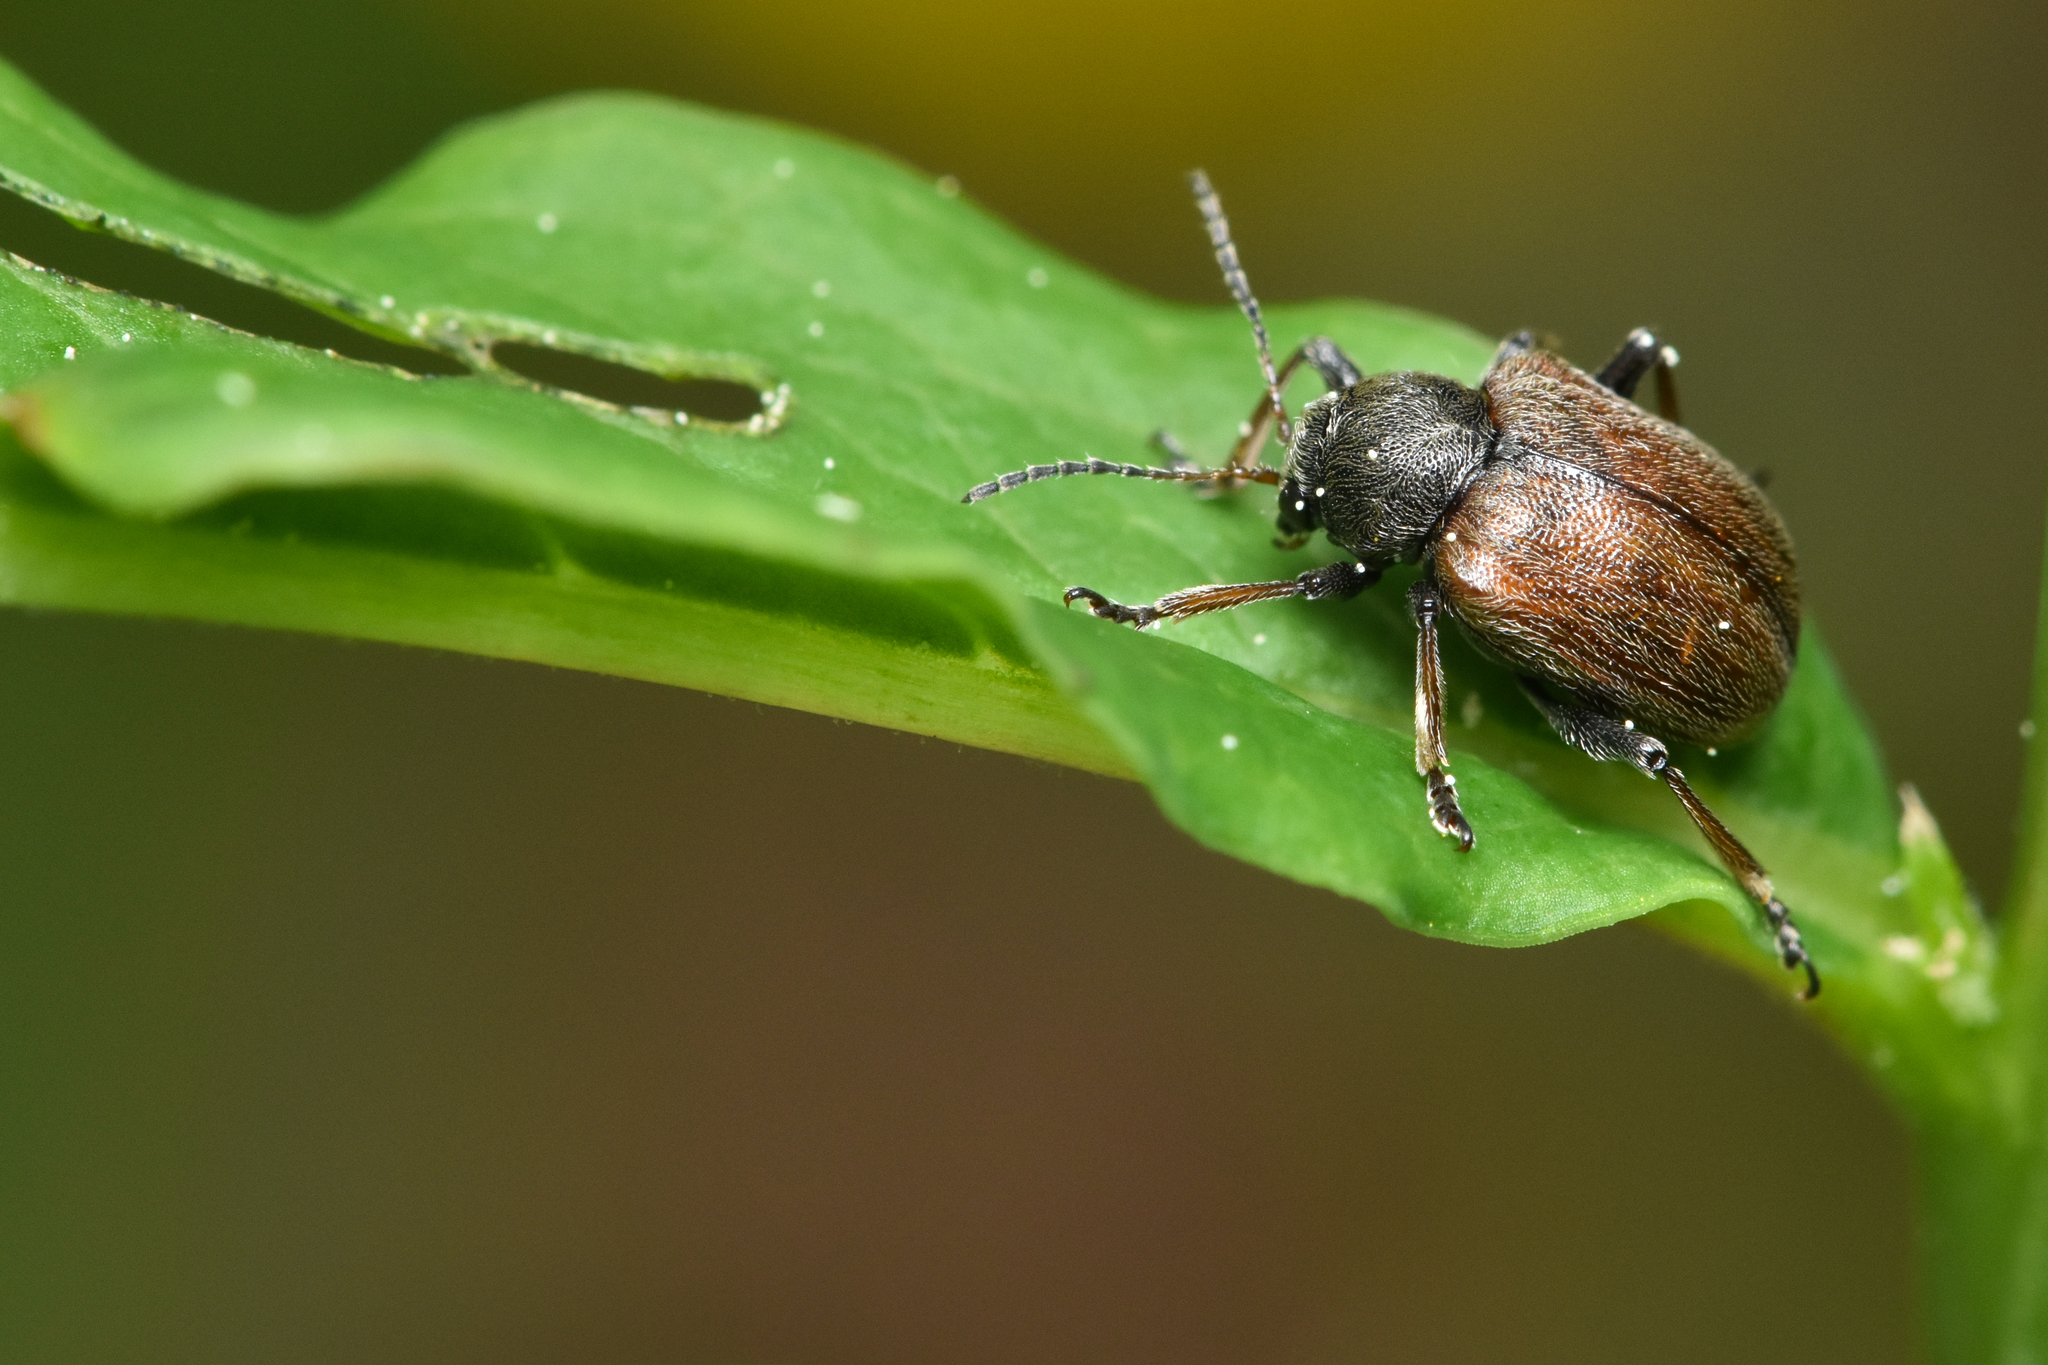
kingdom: Animalia
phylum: Arthropoda
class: Insecta
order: Coleoptera
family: Chrysomelidae
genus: Bromius
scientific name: Bromius obscurus
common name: Western grape rootworm
